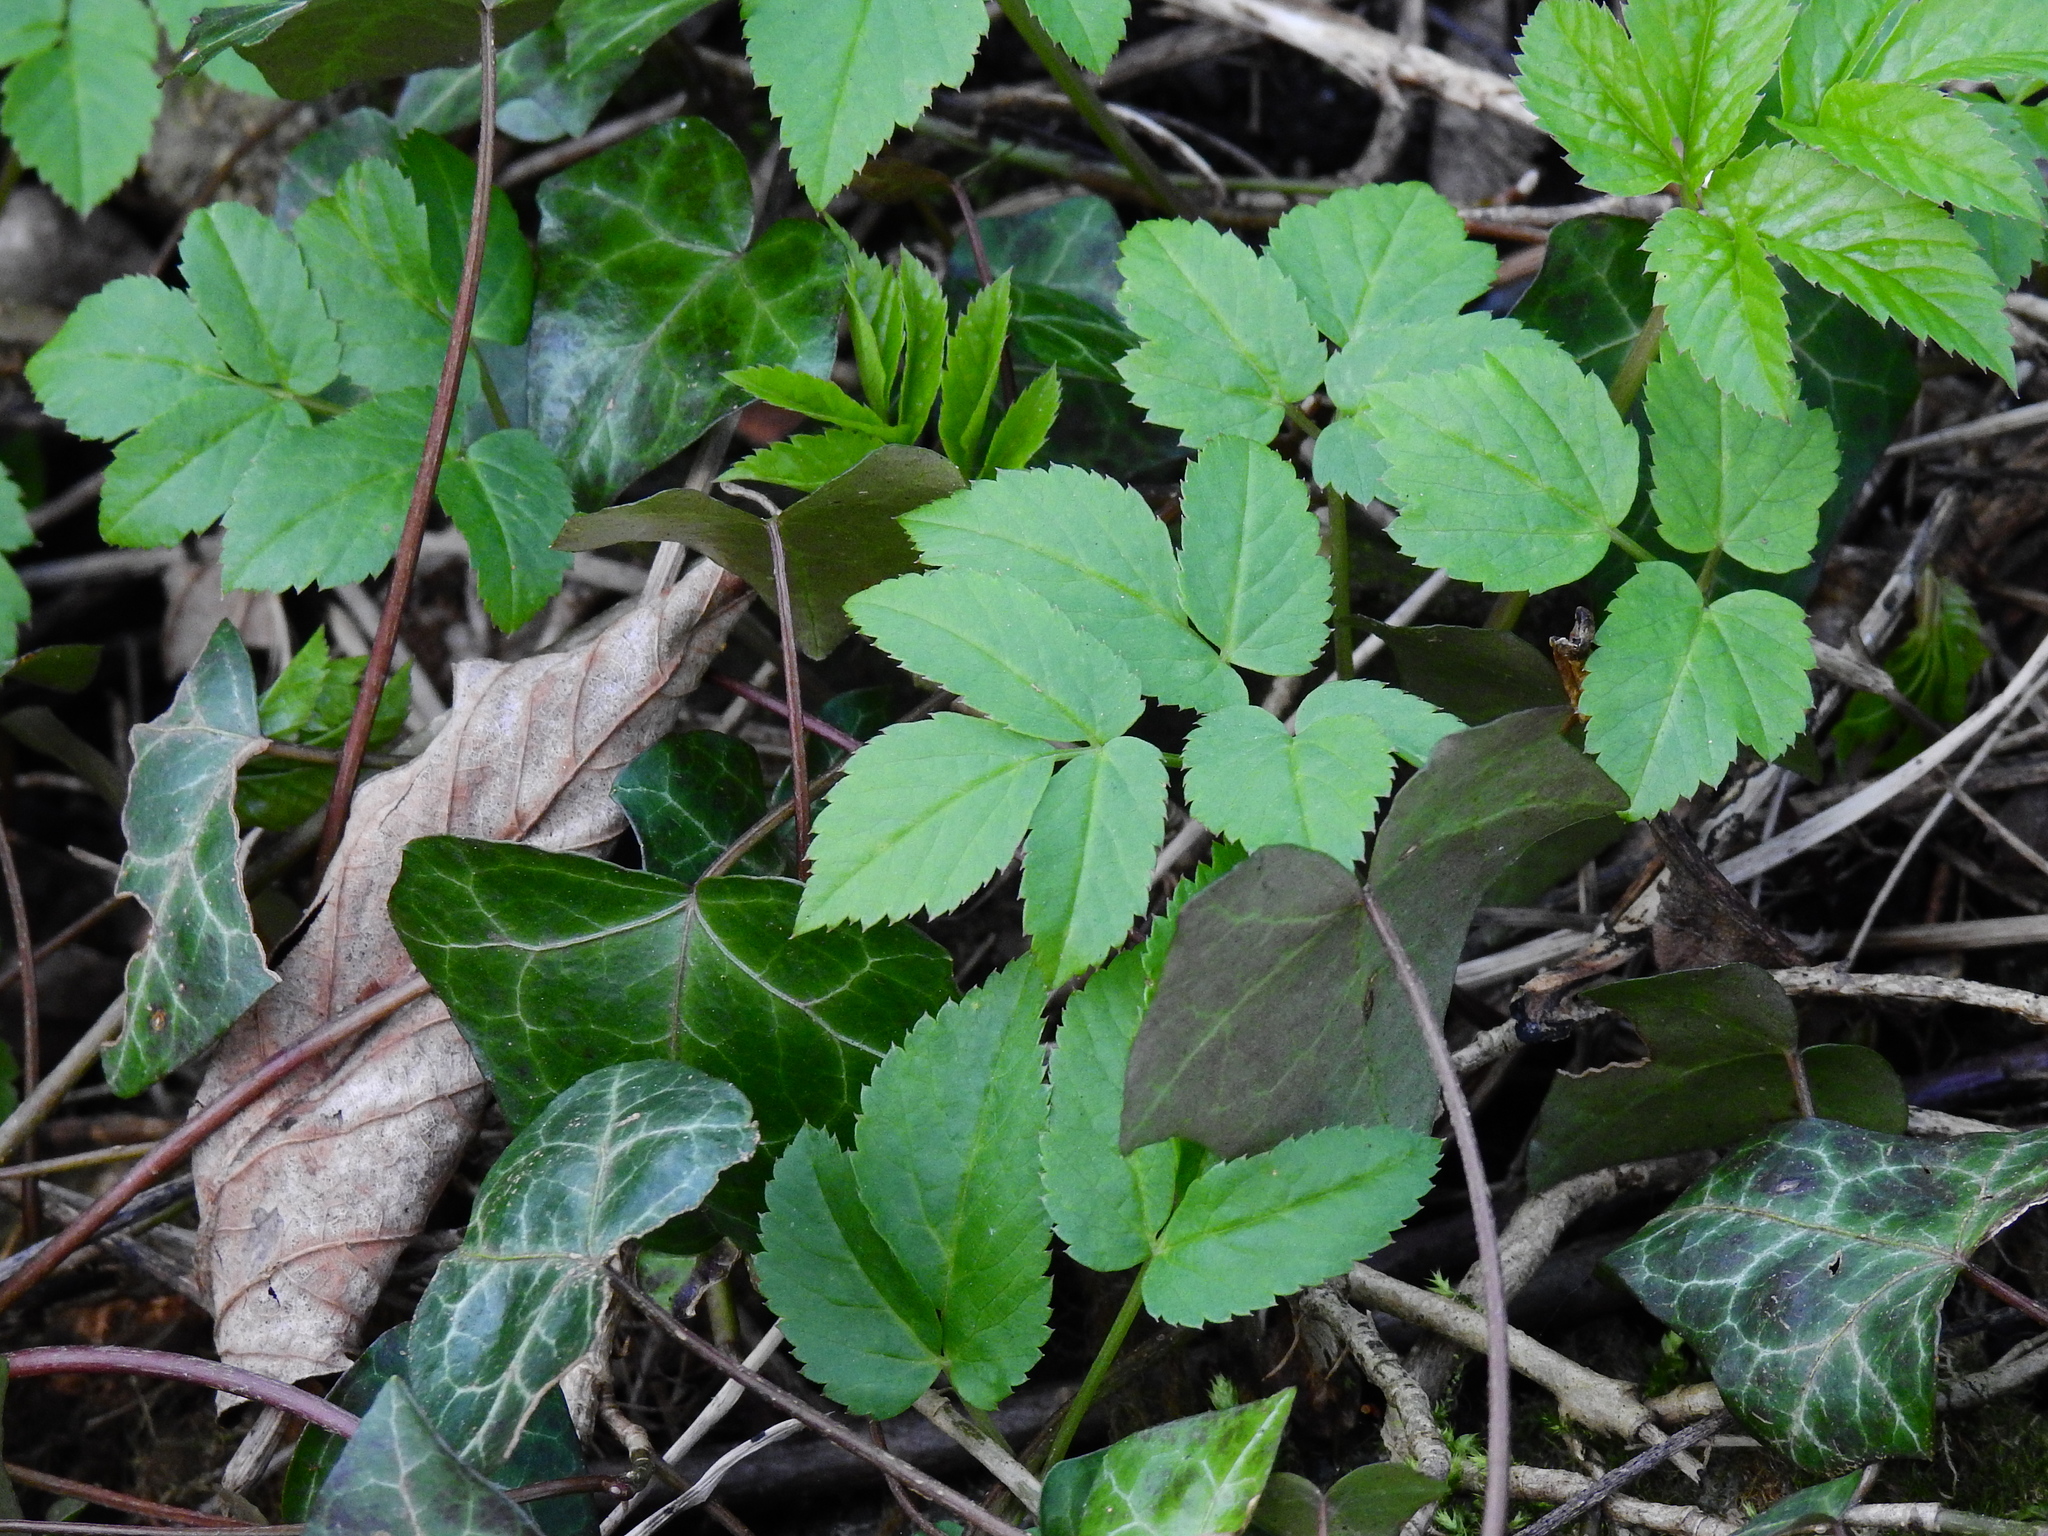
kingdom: Plantae
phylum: Tracheophyta
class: Magnoliopsida
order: Apiales
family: Apiaceae
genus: Aegopodium
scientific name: Aegopodium podagraria
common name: Ground-elder
